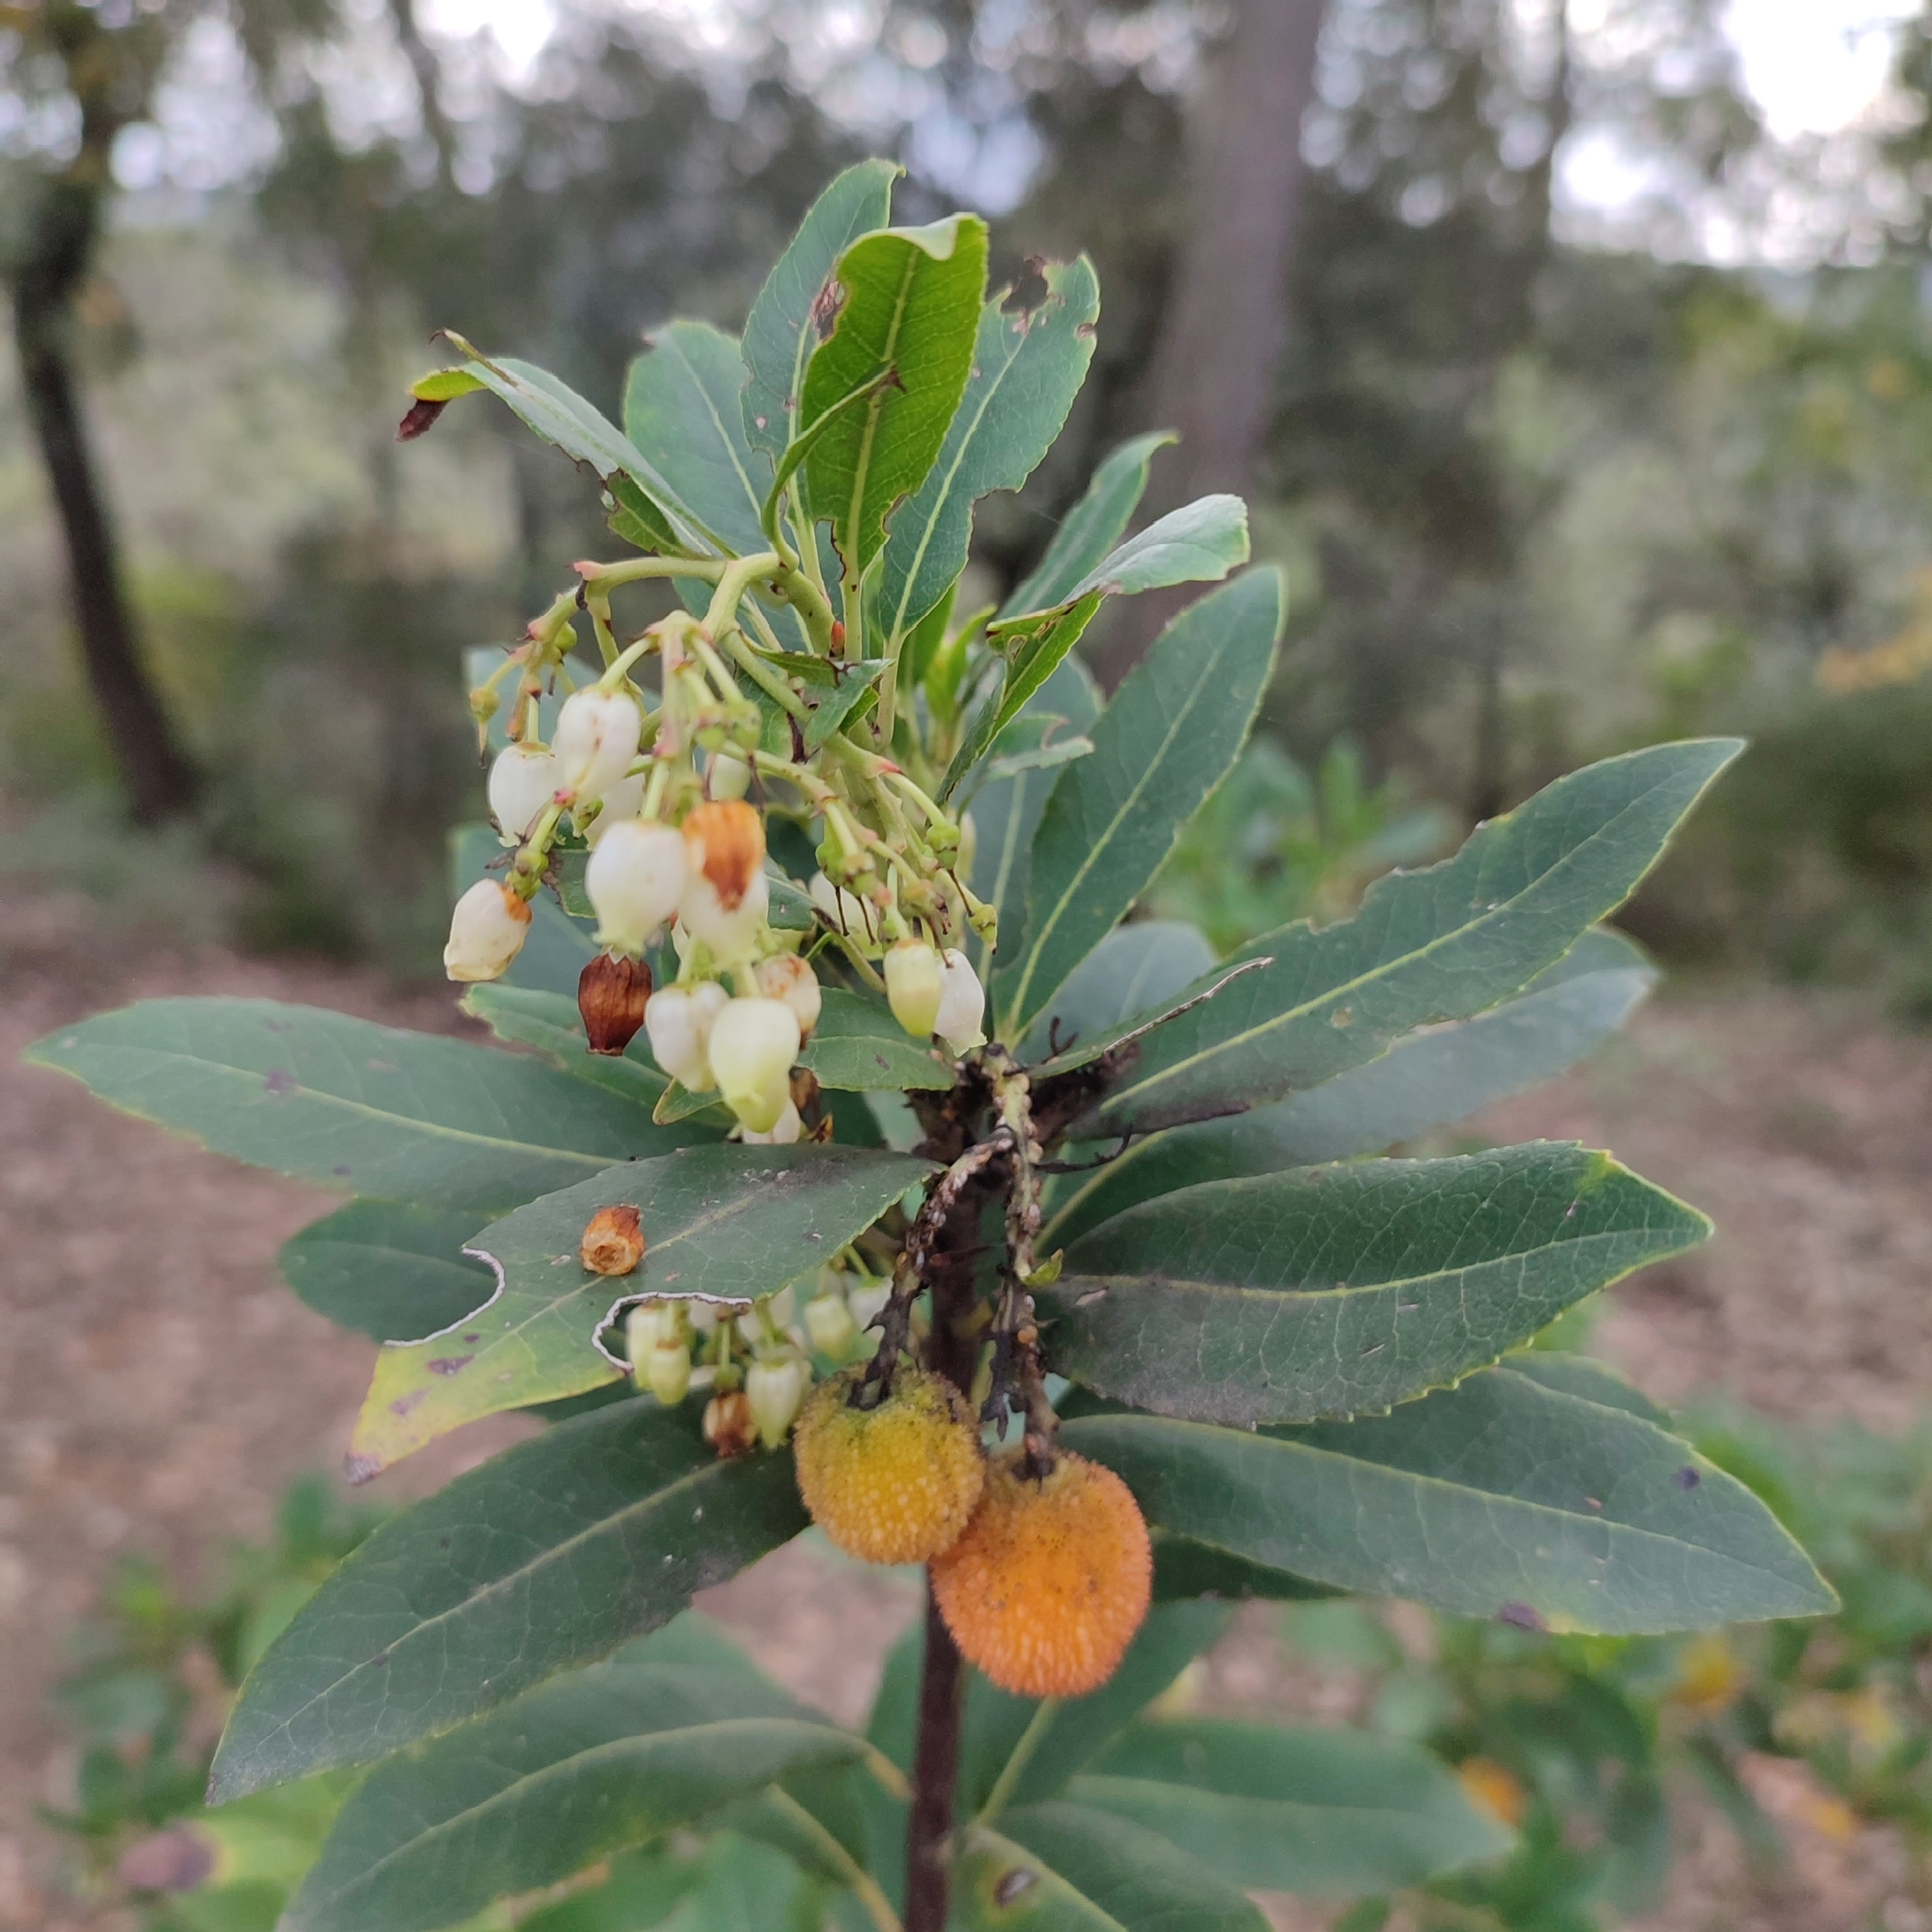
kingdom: Plantae
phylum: Tracheophyta
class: Magnoliopsida
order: Ericales
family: Ericaceae
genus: Arbutus
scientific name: Arbutus unedo
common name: Strawberry-tree
